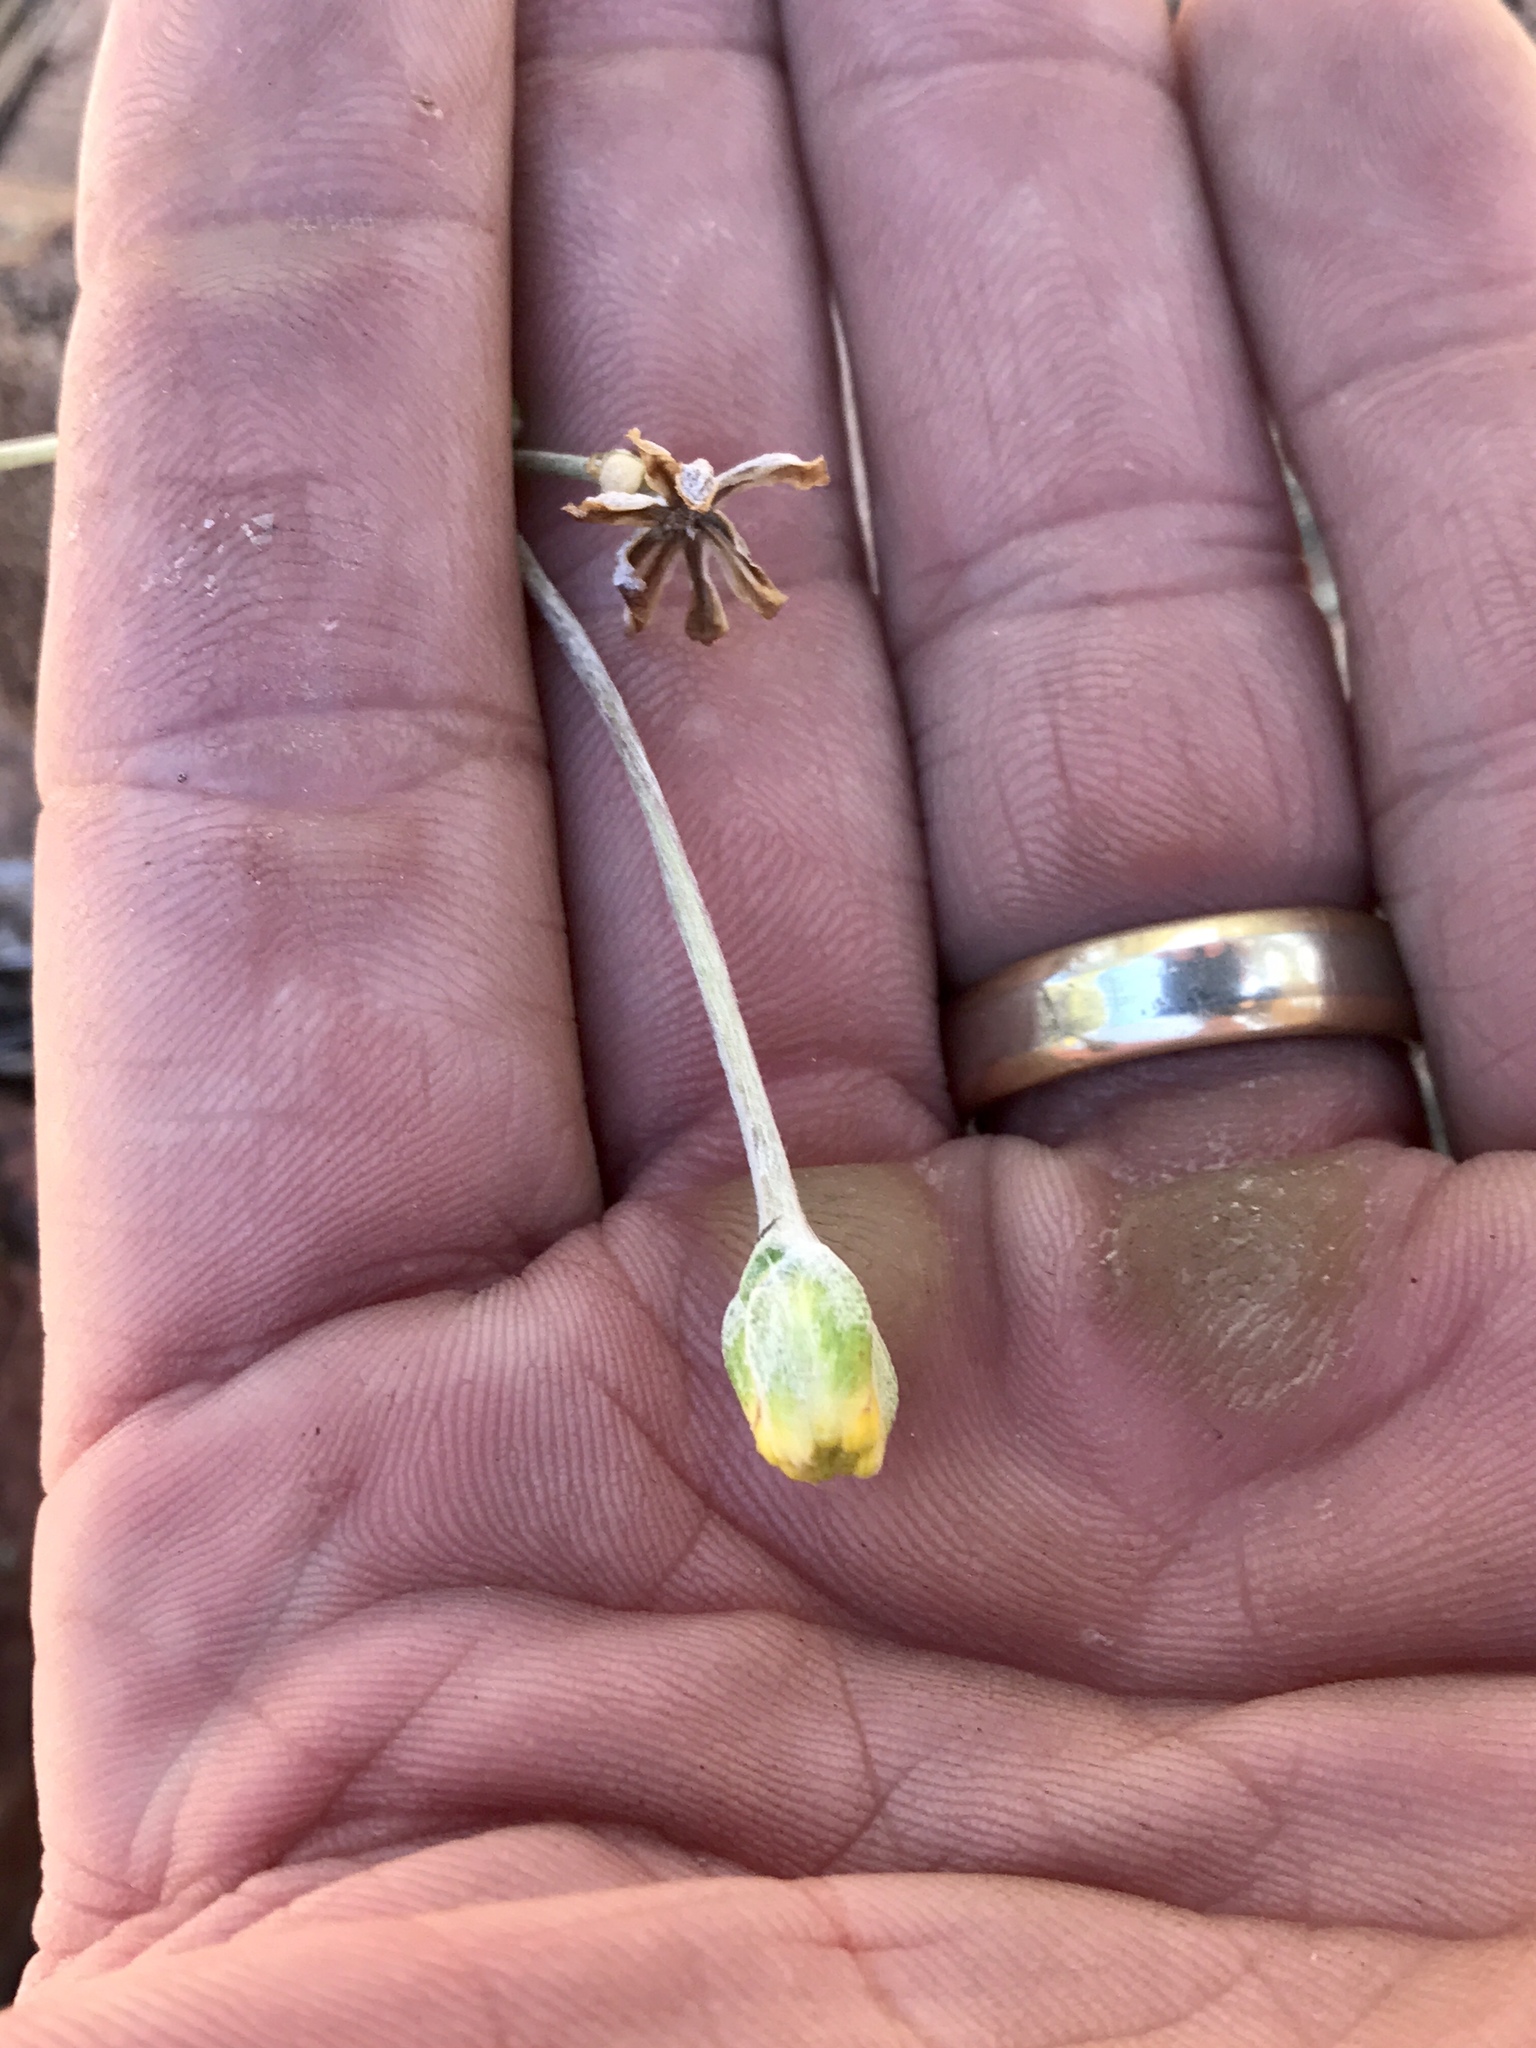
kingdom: Plantae
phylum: Tracheophyta
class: Magnoliopsida
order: Asterales
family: Asteraceae
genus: Hymenopappus
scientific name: Hymenopappus filifolius
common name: Columbia cutleaf
